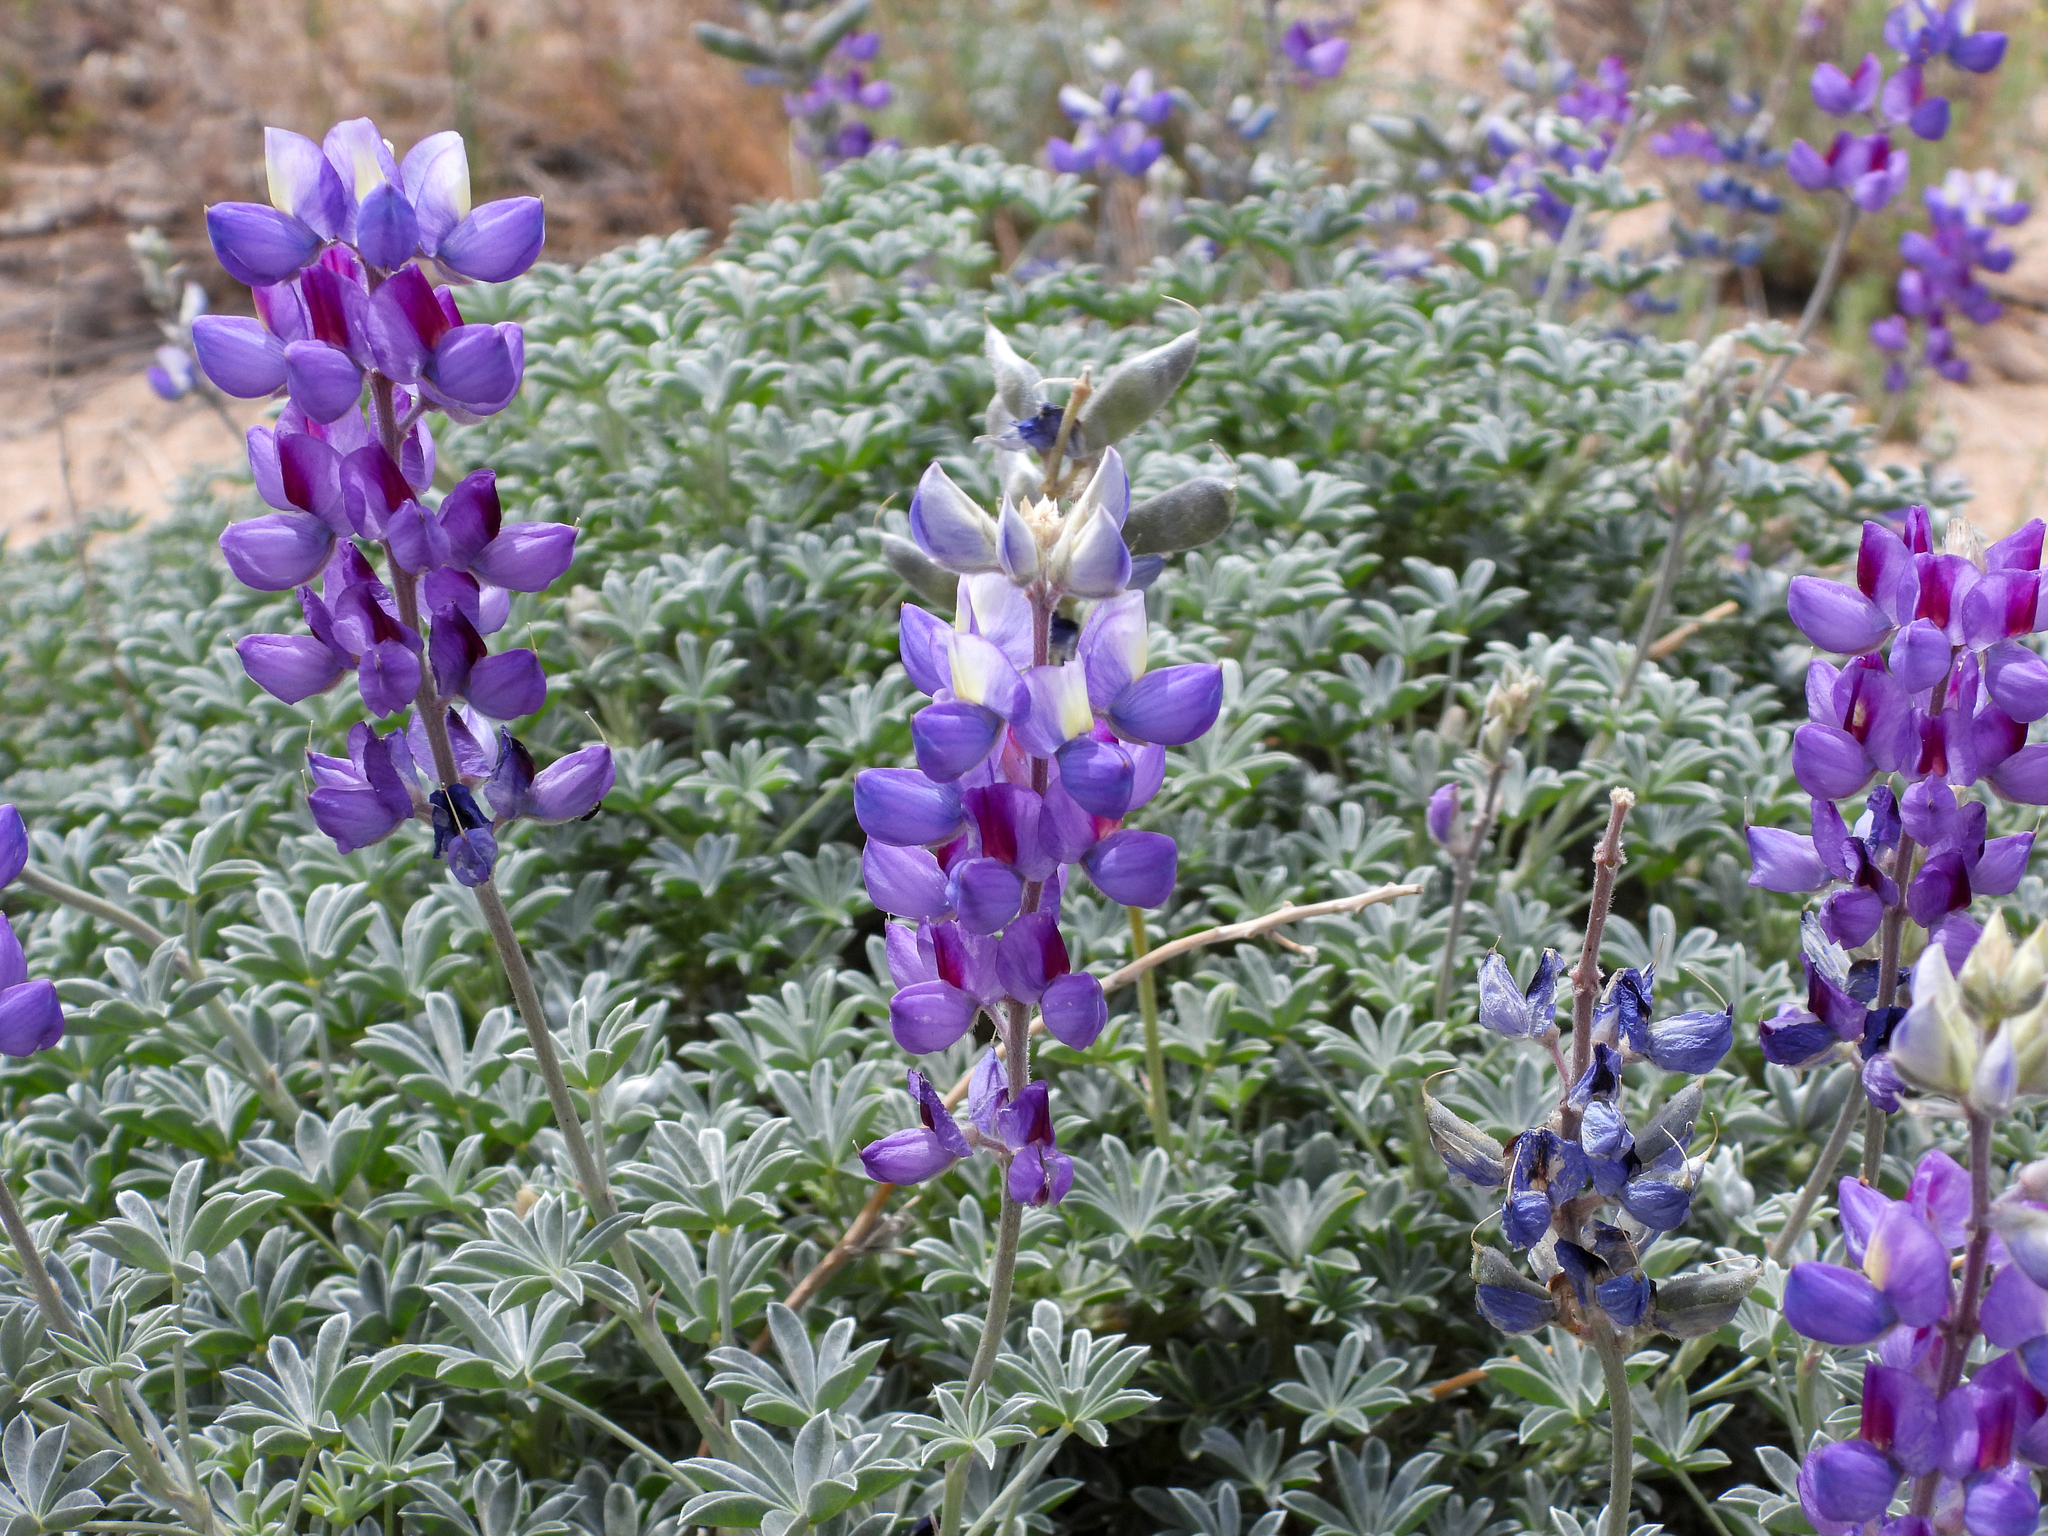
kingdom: Plantae
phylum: Tracheophyta
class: Magnoliopsida
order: Fabales
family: Fabaceae
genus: Lupinus
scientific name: Lupinus albifrons
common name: Foothill lupine
